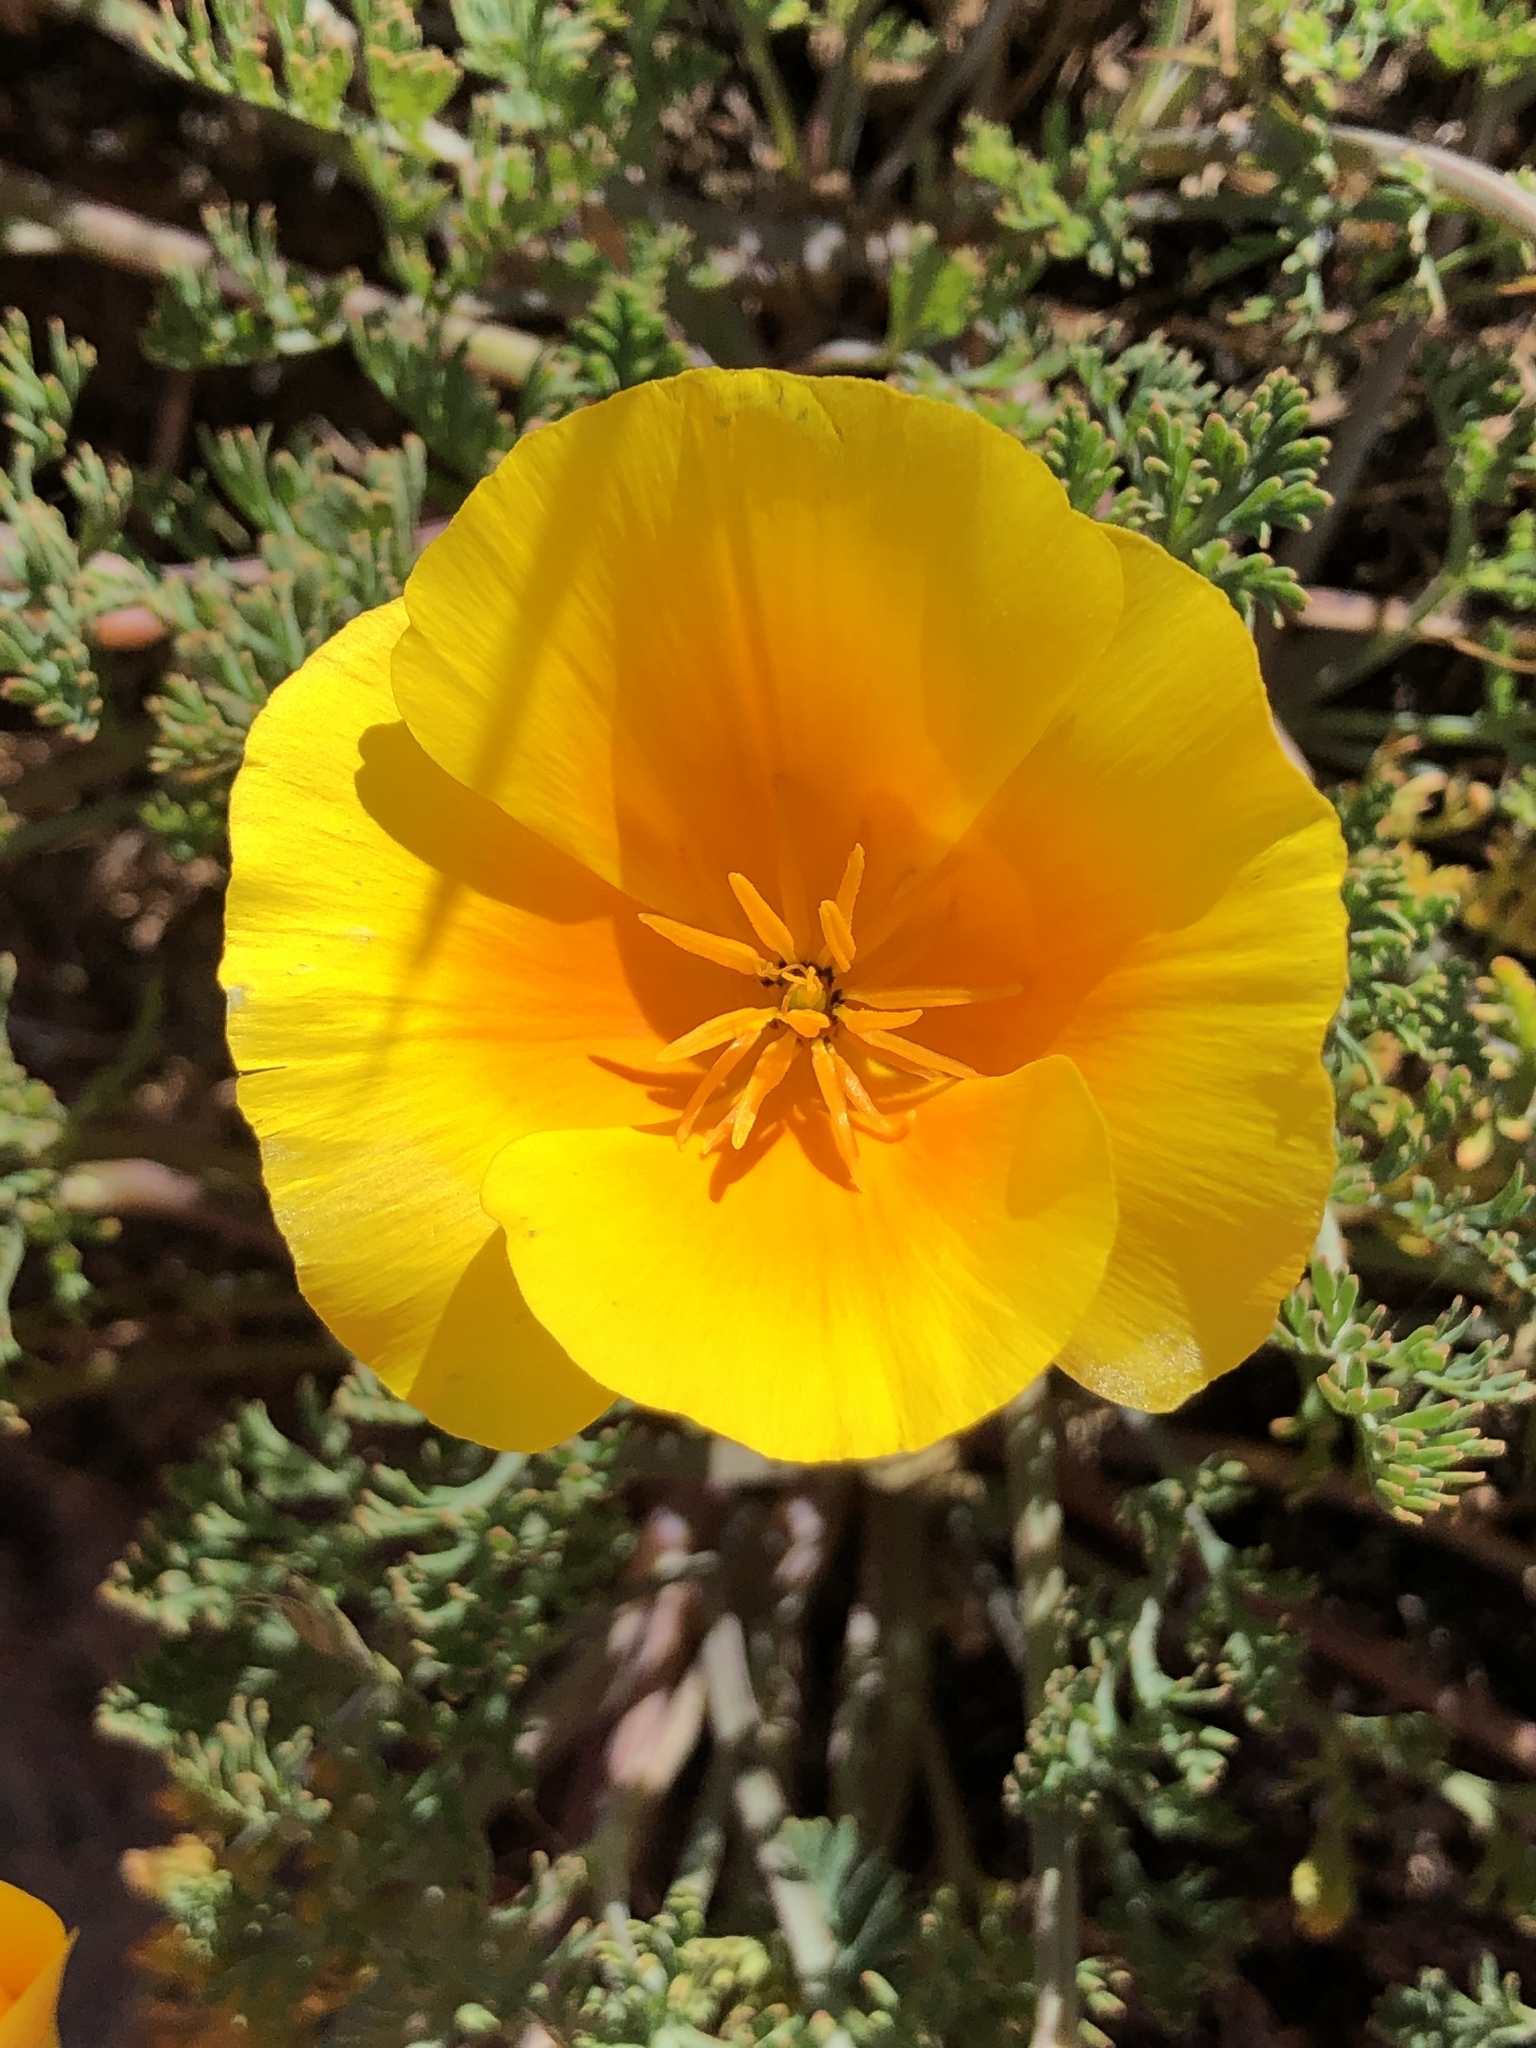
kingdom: Plantae
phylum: Tracheophyta
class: Magnoliopsida
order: Ranunculales
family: Papaveraceae
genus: Eschscholzia
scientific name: Eschscholzia californica
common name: California poppy
